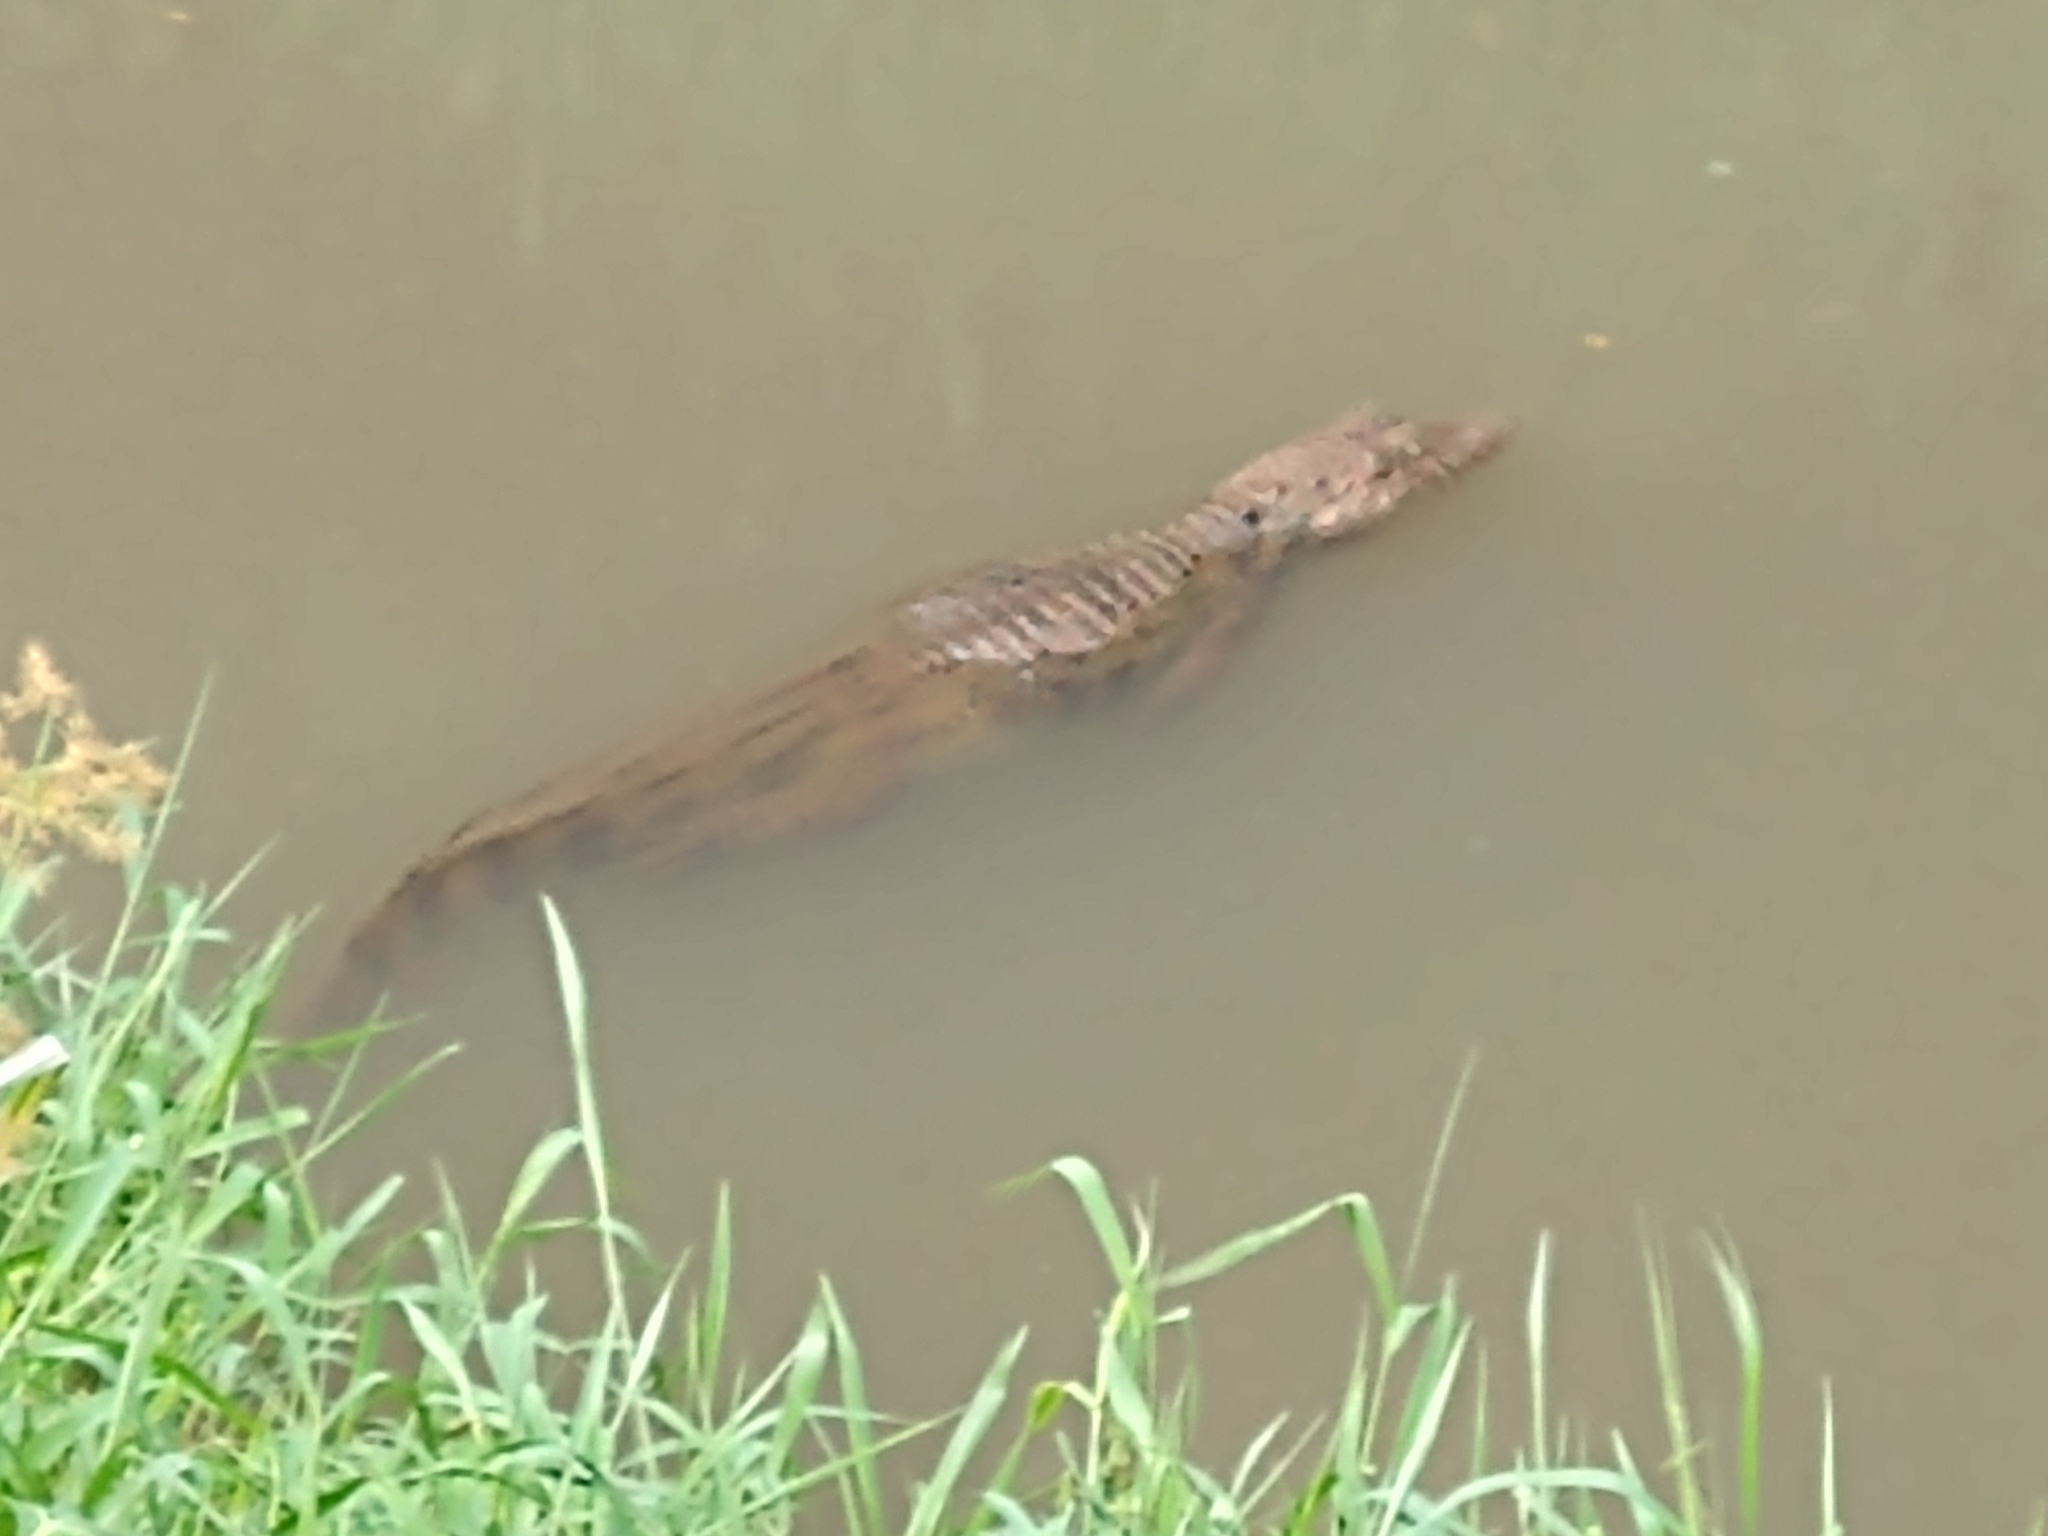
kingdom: Animalia
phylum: Chordata
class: Crocodylia
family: Alligatoridae
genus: Caiman
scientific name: Caiman latirostris
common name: Broad-snouted caiman
